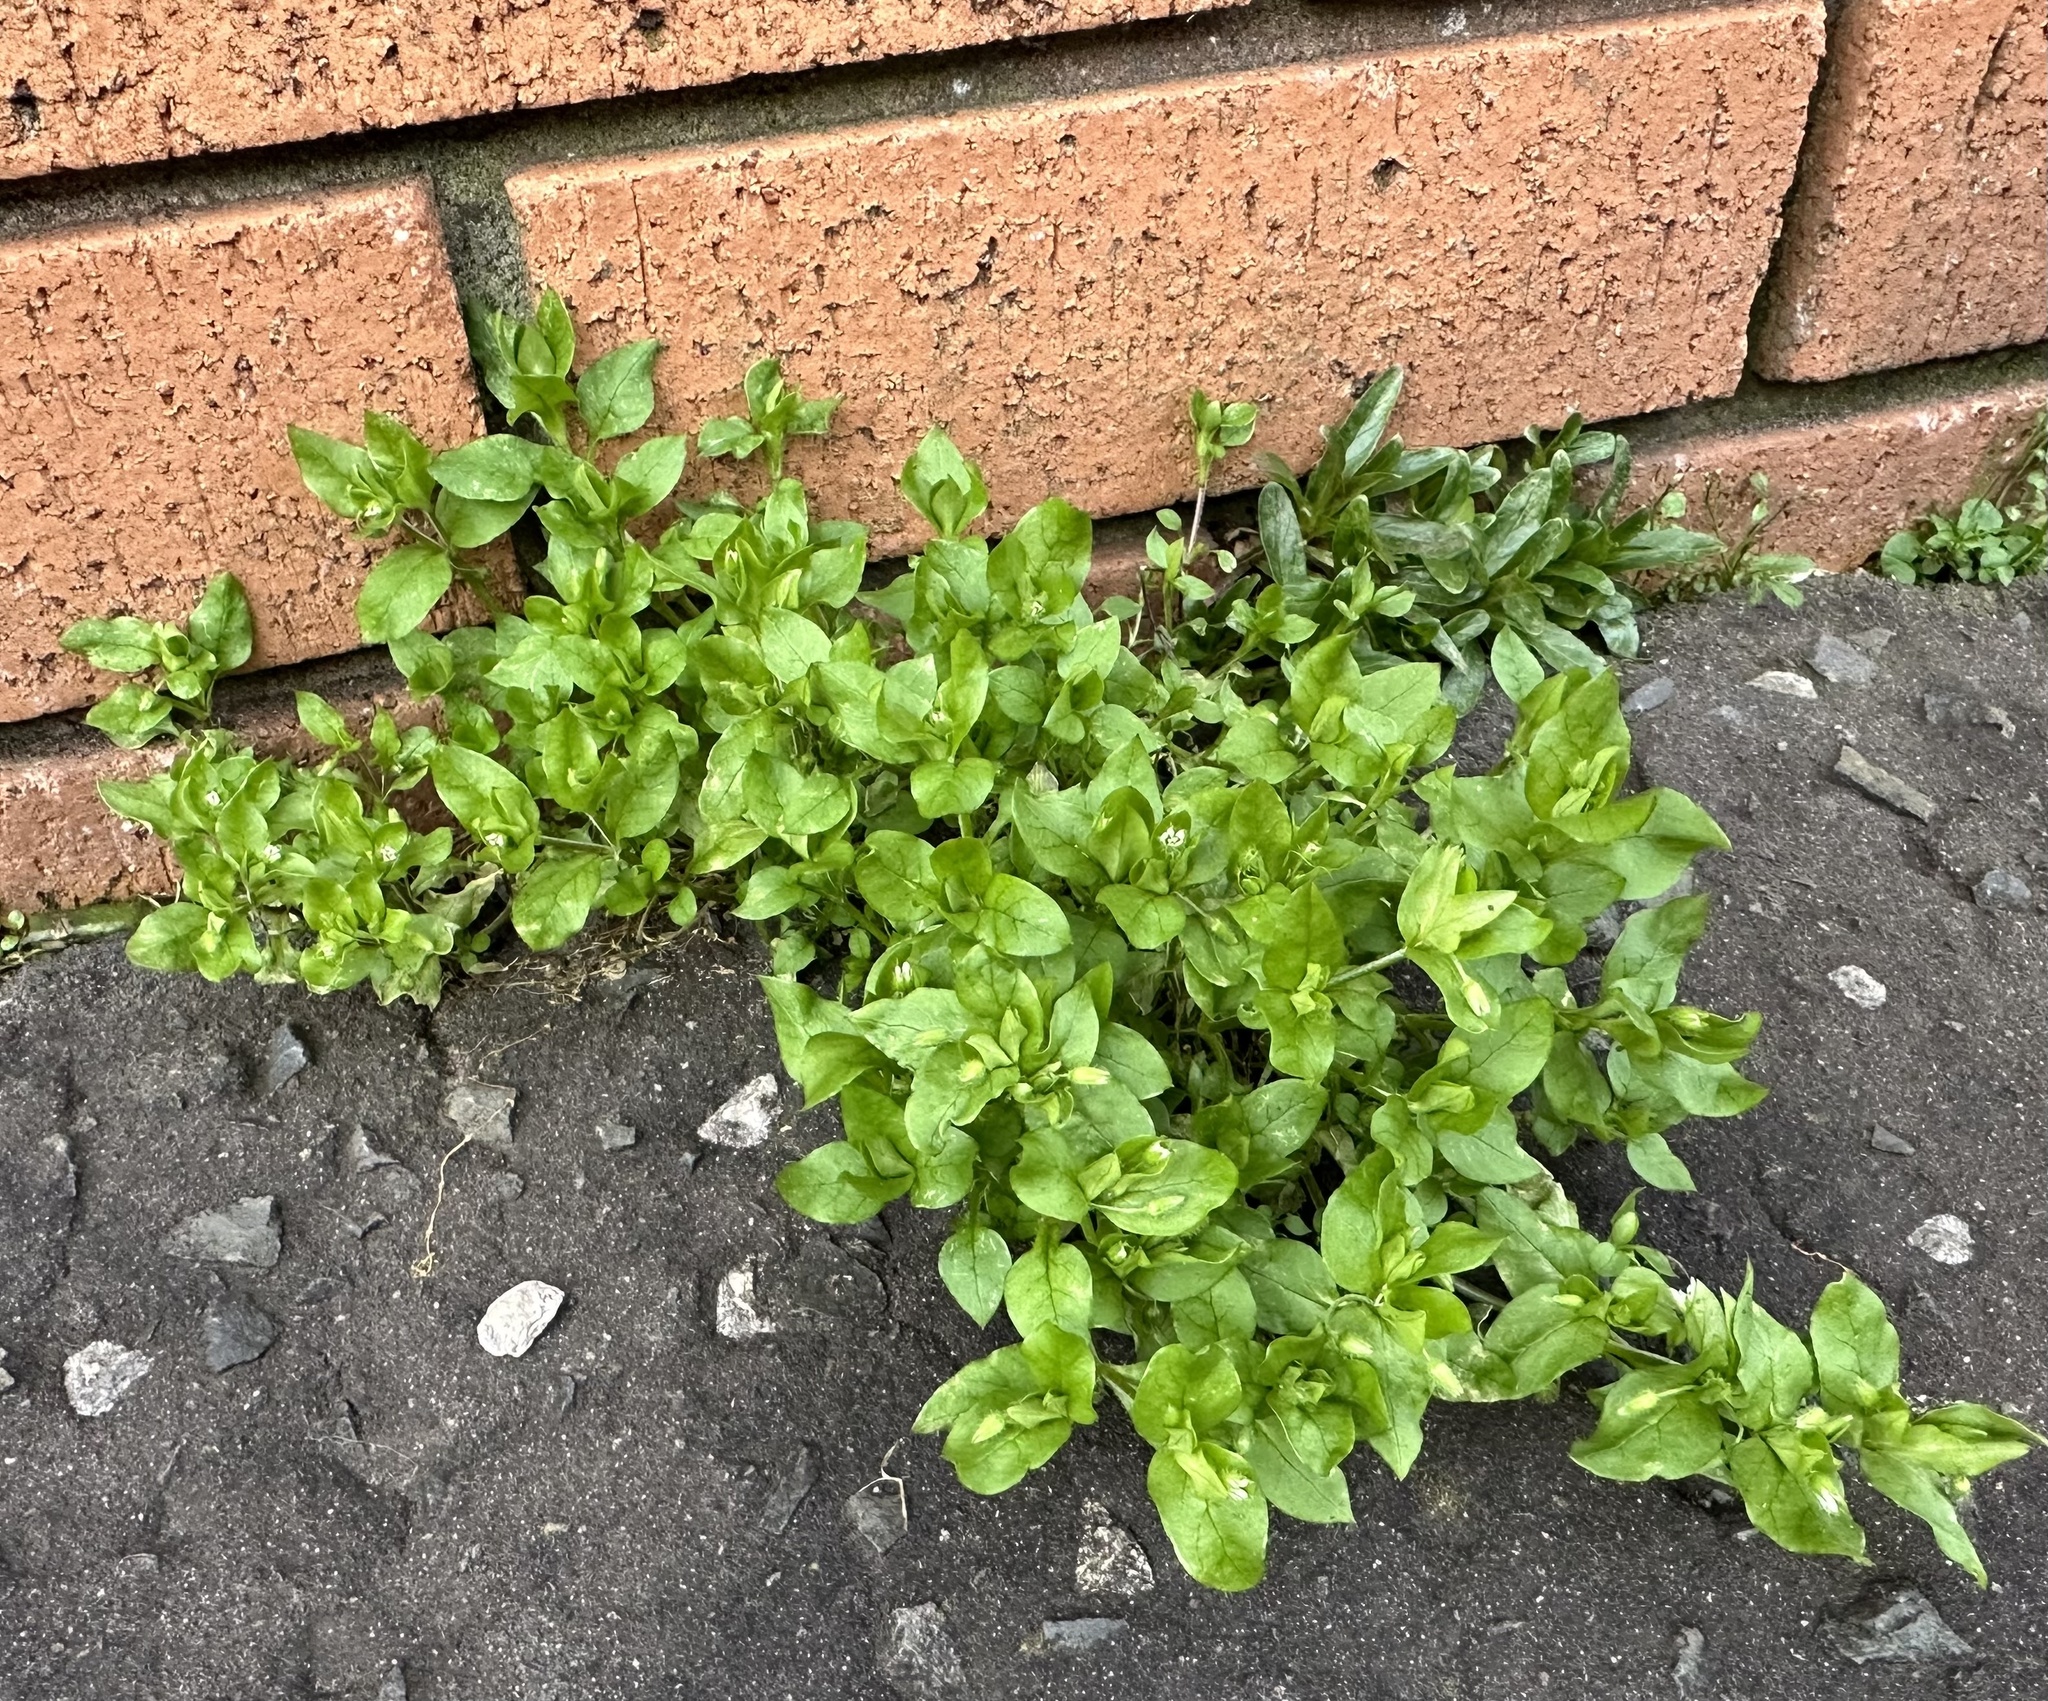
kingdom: Plantae
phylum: Tracheophyta
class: Magnoliopsida
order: Caryophyllales
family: Caryophyllaceae
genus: Stellaria
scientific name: Stellaria media
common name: Common chickweed
